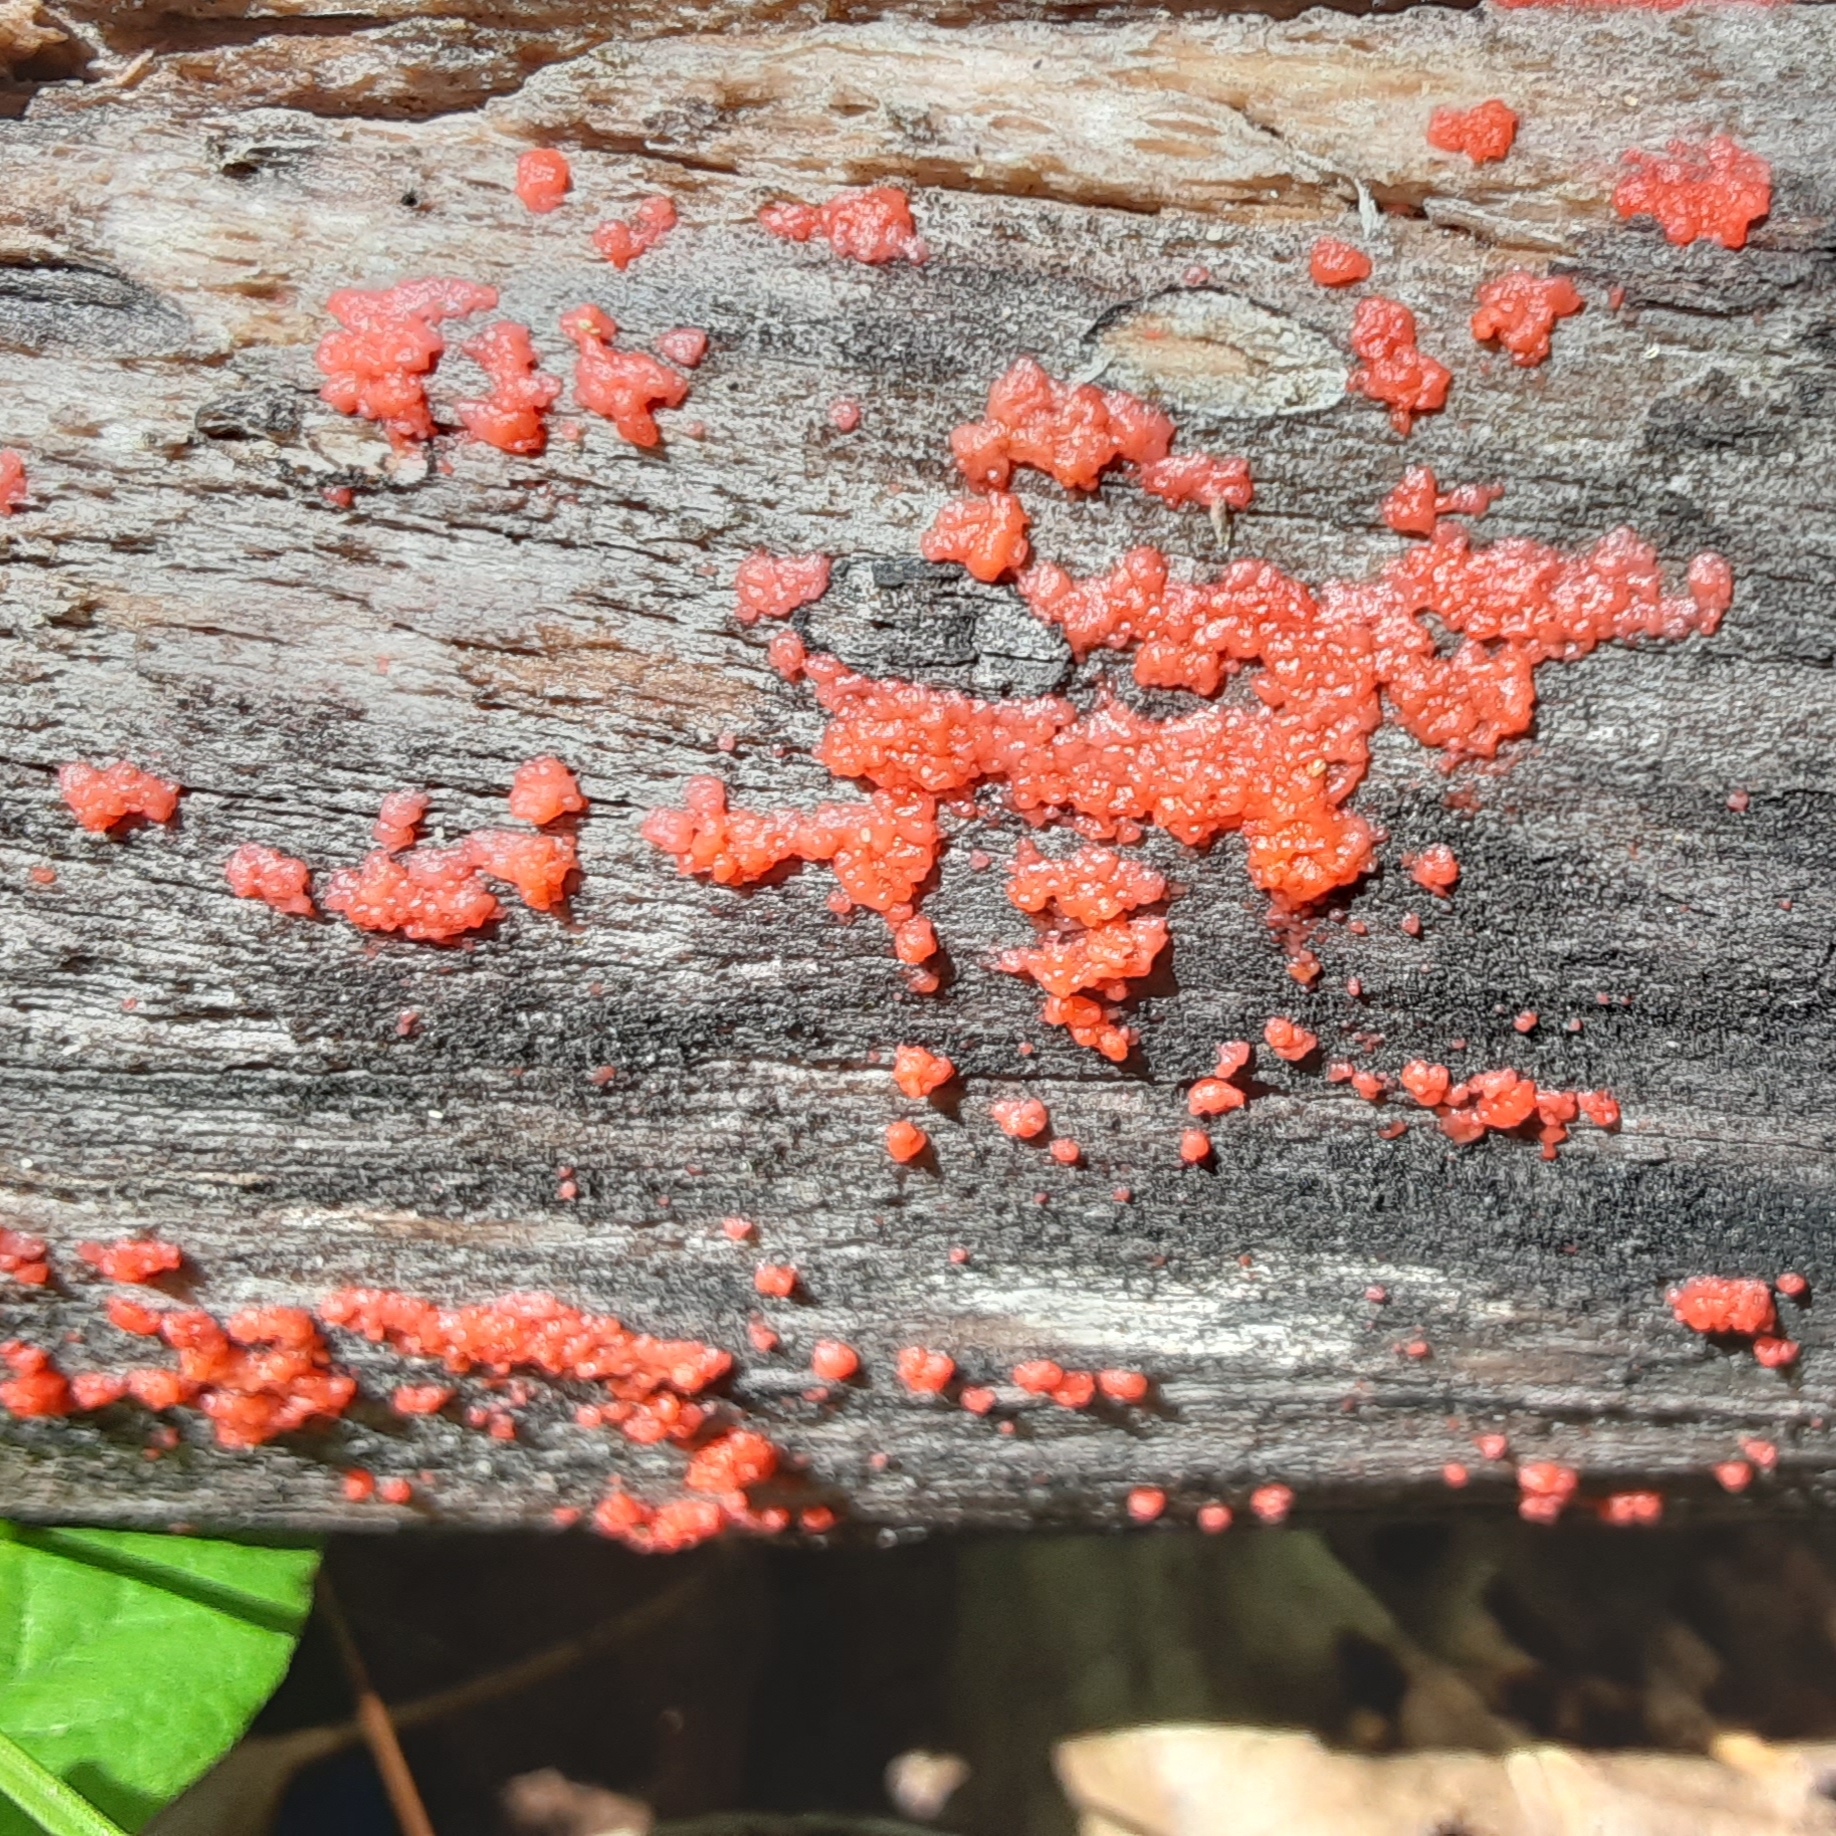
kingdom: Protozoa
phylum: Mycetozoa
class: Myxomycetes
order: Cribrariales
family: Tubiferaceae
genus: Tubifera
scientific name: Tubifera ferruginosa
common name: Red raspberry slime mold
